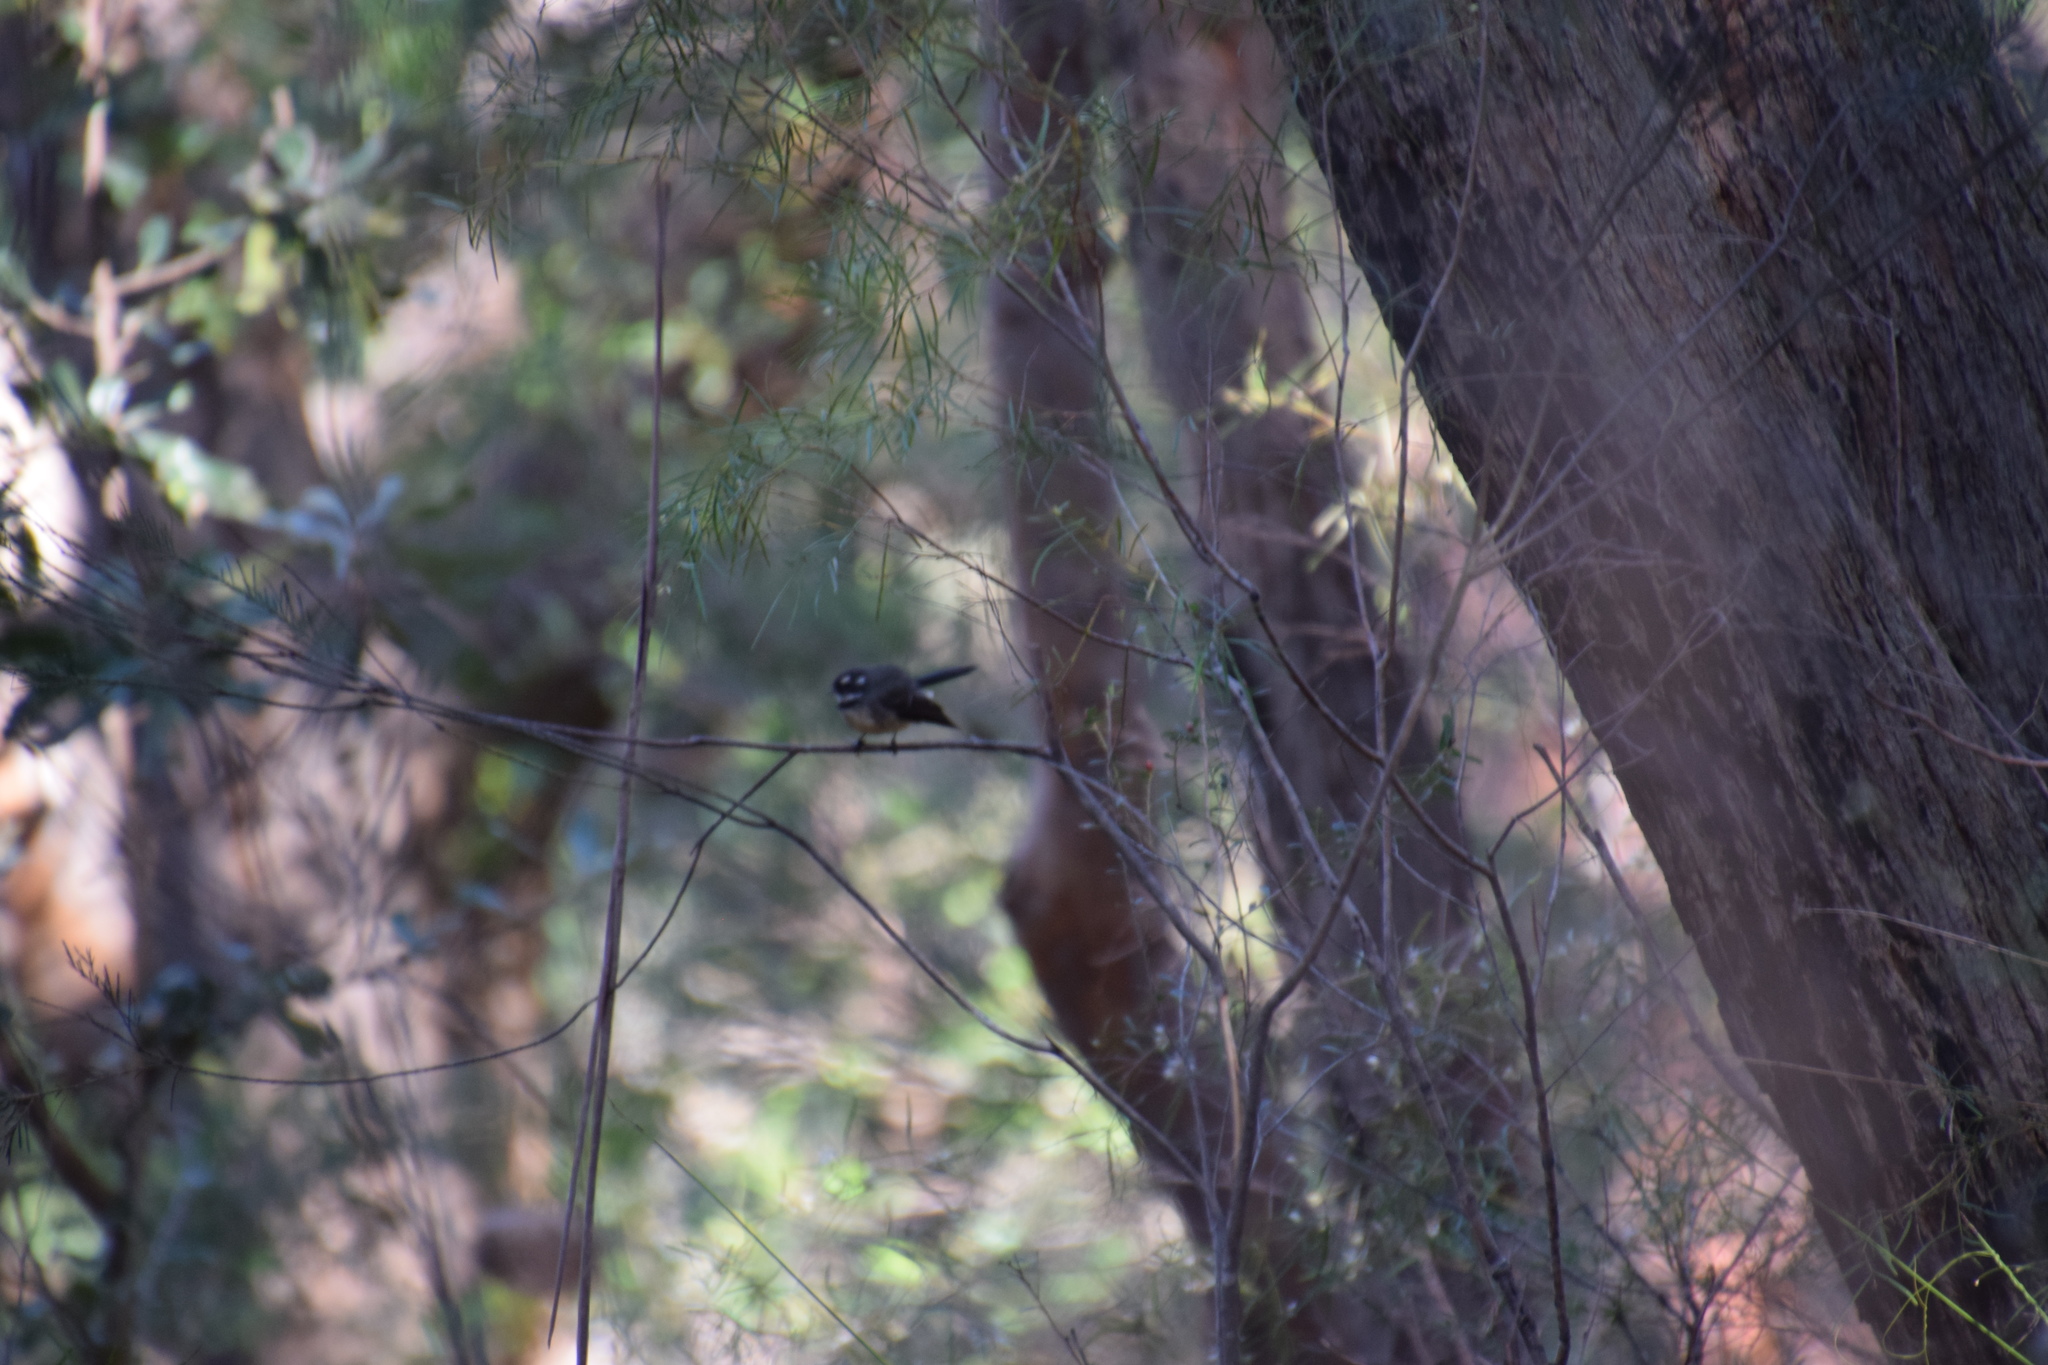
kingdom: Animalia
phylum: Chordata
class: Aves
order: Passeriformes
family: Rhipiduridae
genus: Rhipidura
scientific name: Rhipidura albiscapa
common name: Grey fantail
